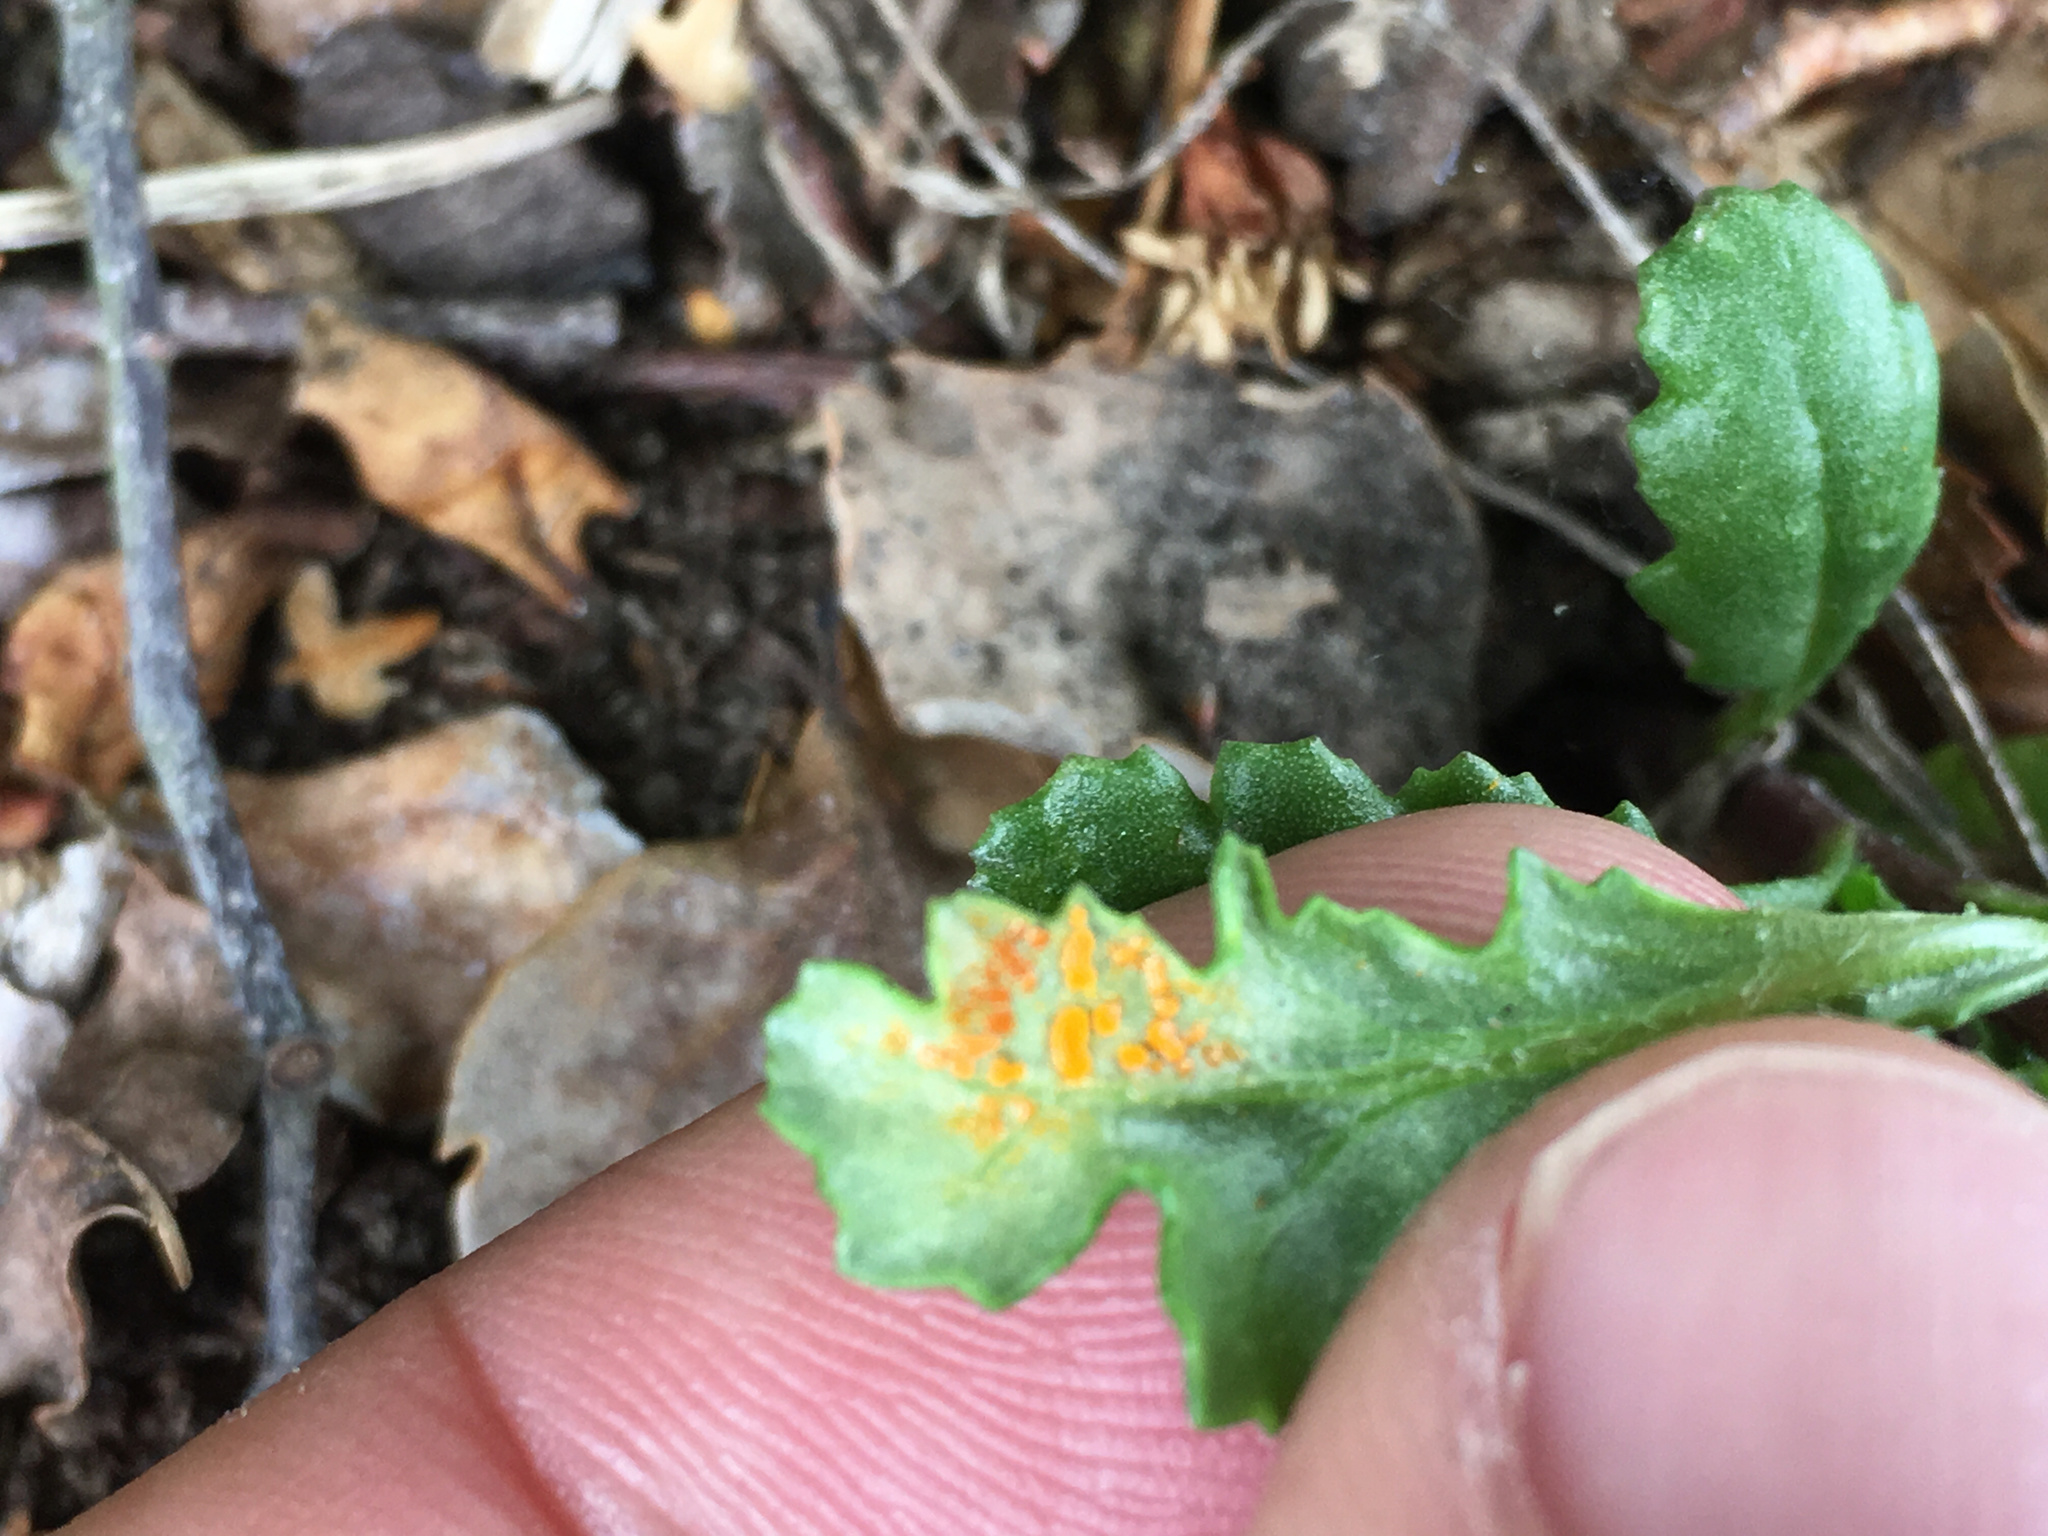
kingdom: Fungi
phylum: Basidiomycota
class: Pucciniomycetes
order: Pucciniales
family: Coleosporiaceae
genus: Coleosporium
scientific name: Coleosporium tussilaginis
